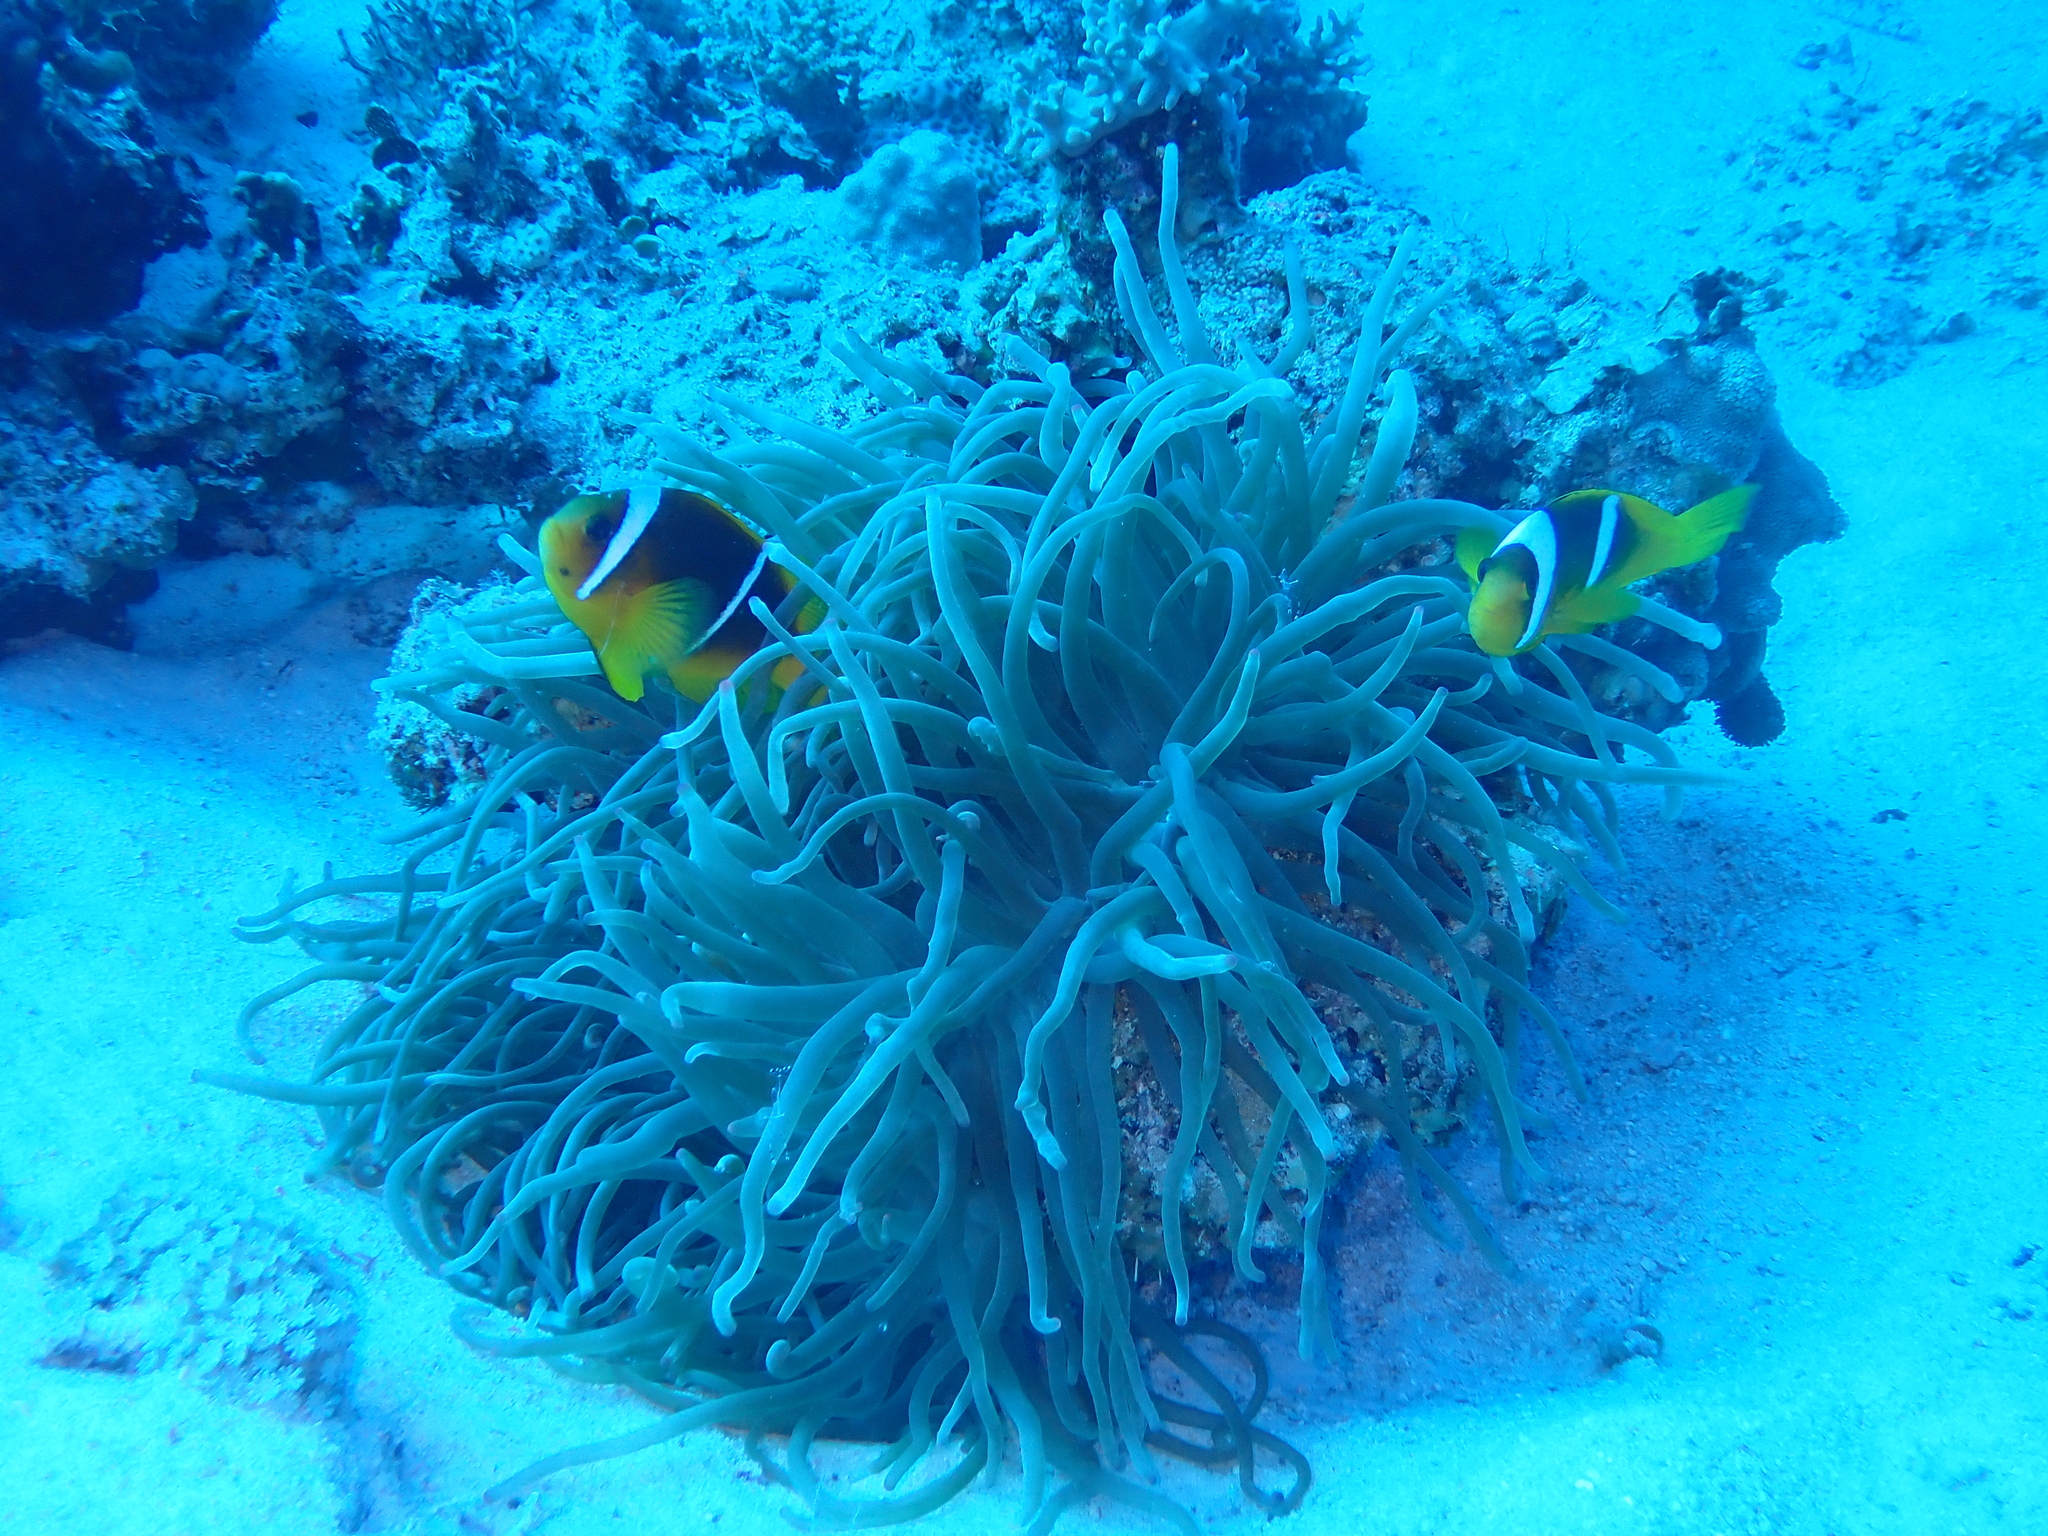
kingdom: Animalia
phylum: Cnidaria
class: Anthozoa
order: Actiniaria
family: Actiniidae
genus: Entacmaea
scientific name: Entacmaea quadricolor
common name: Bulb tentacle sea anemone
